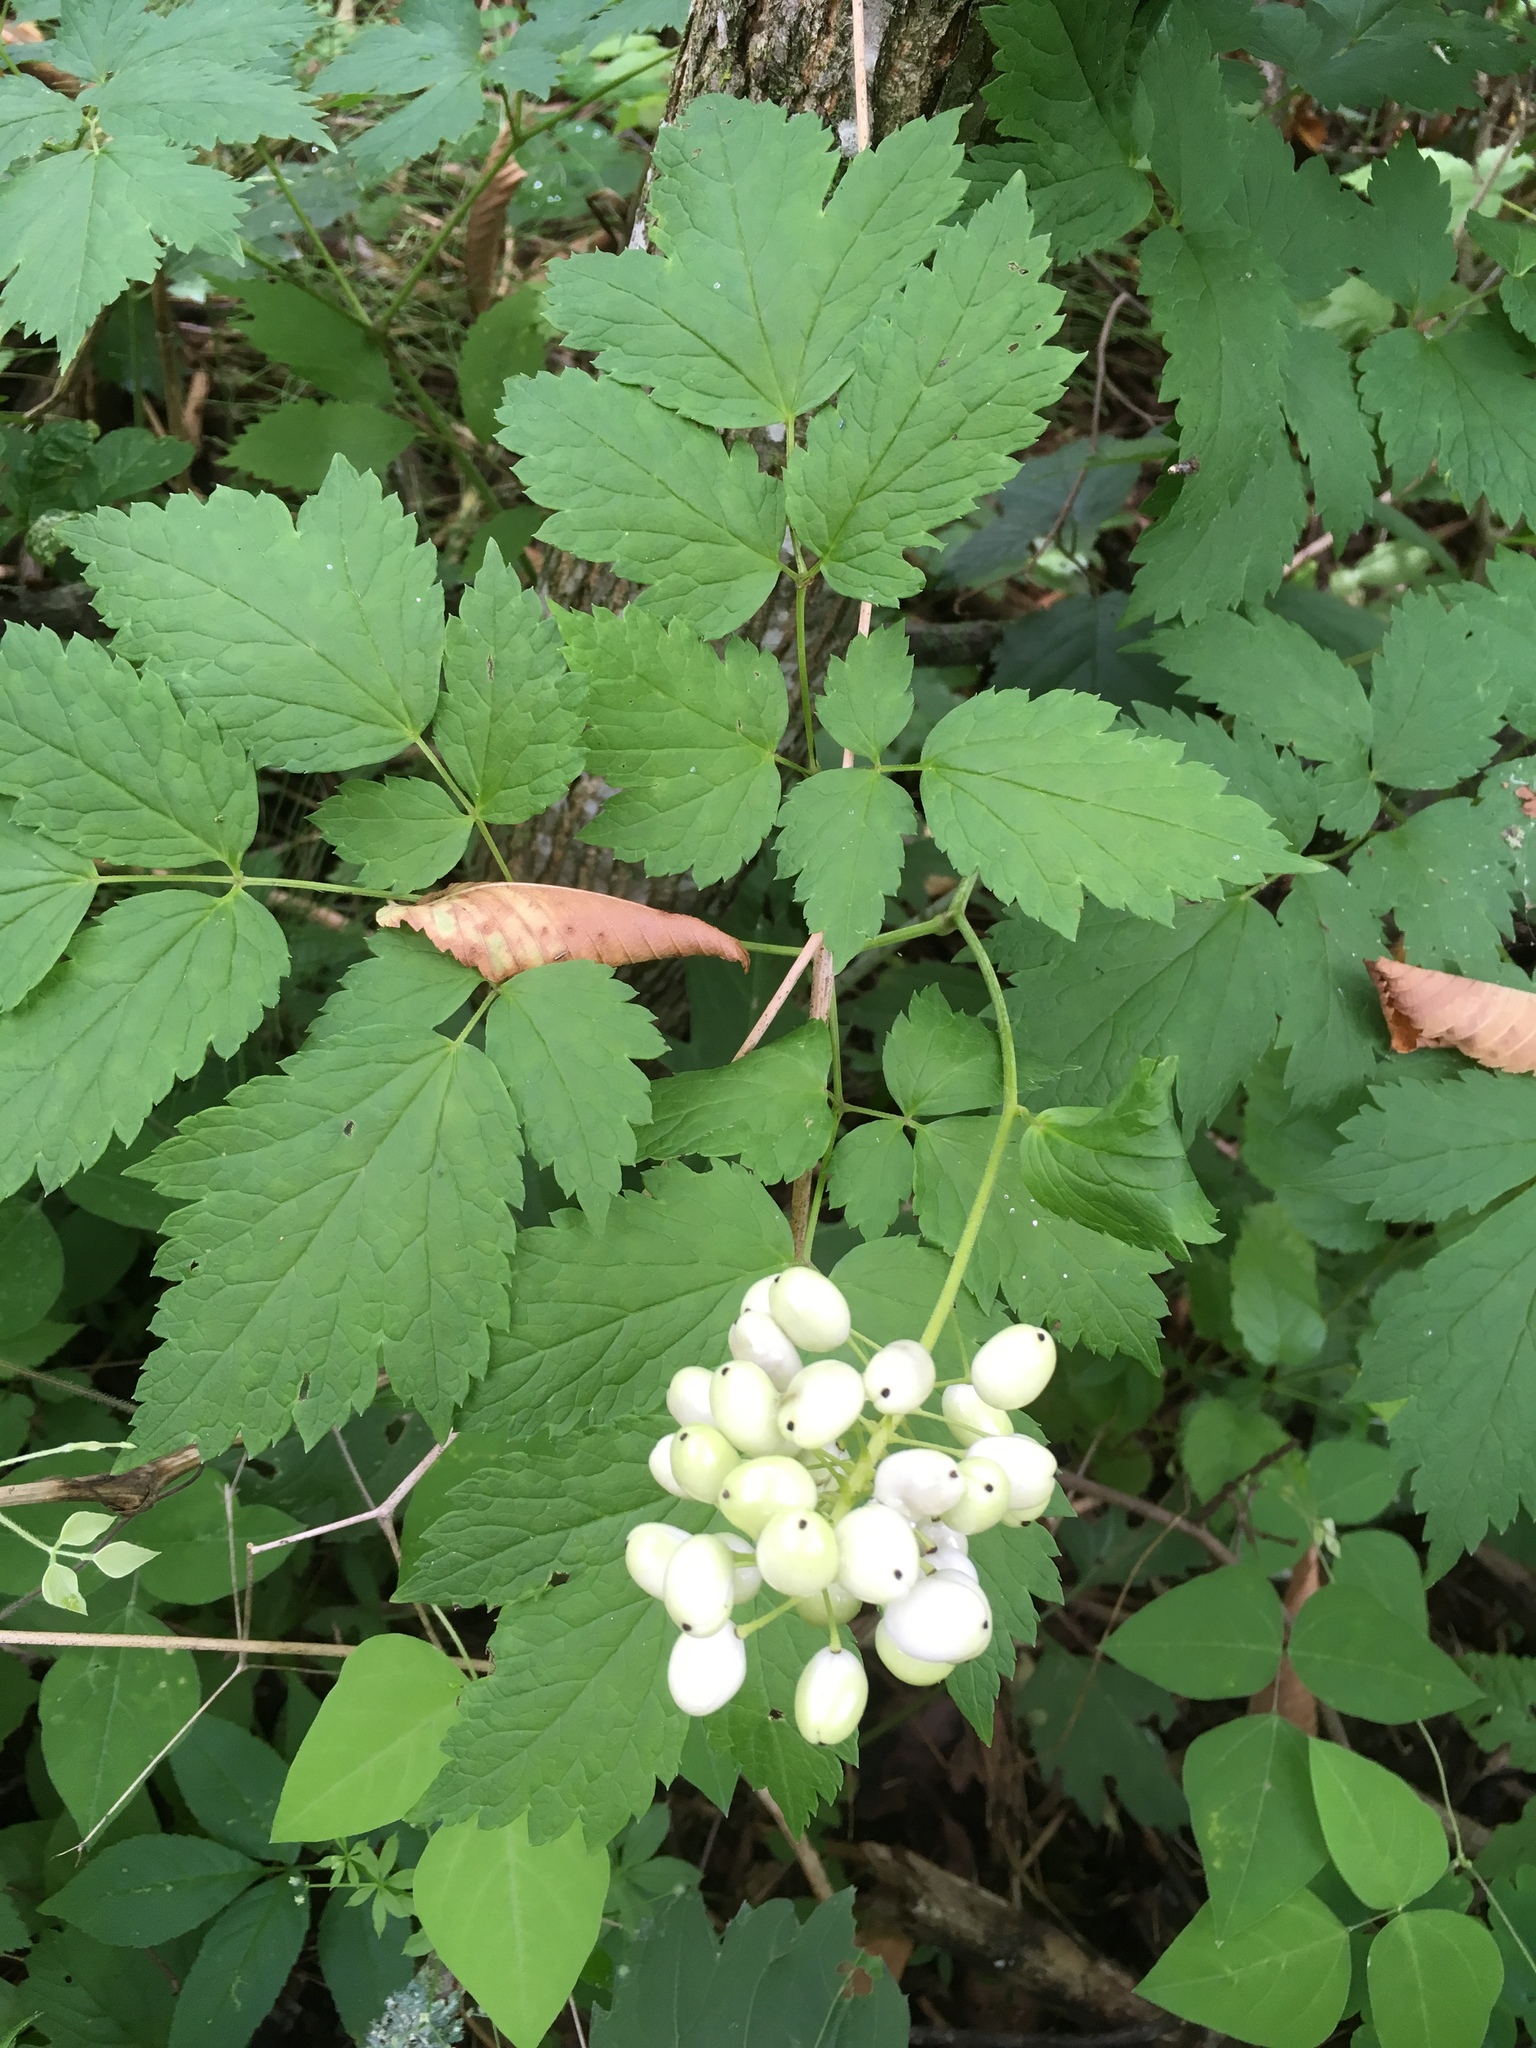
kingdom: Plantae
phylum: Tracheophyta
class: Magnoliopsida
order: Ranunculales
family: Ranunculaceae
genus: Actaea
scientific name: Actaea rubra
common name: Red baneberry
